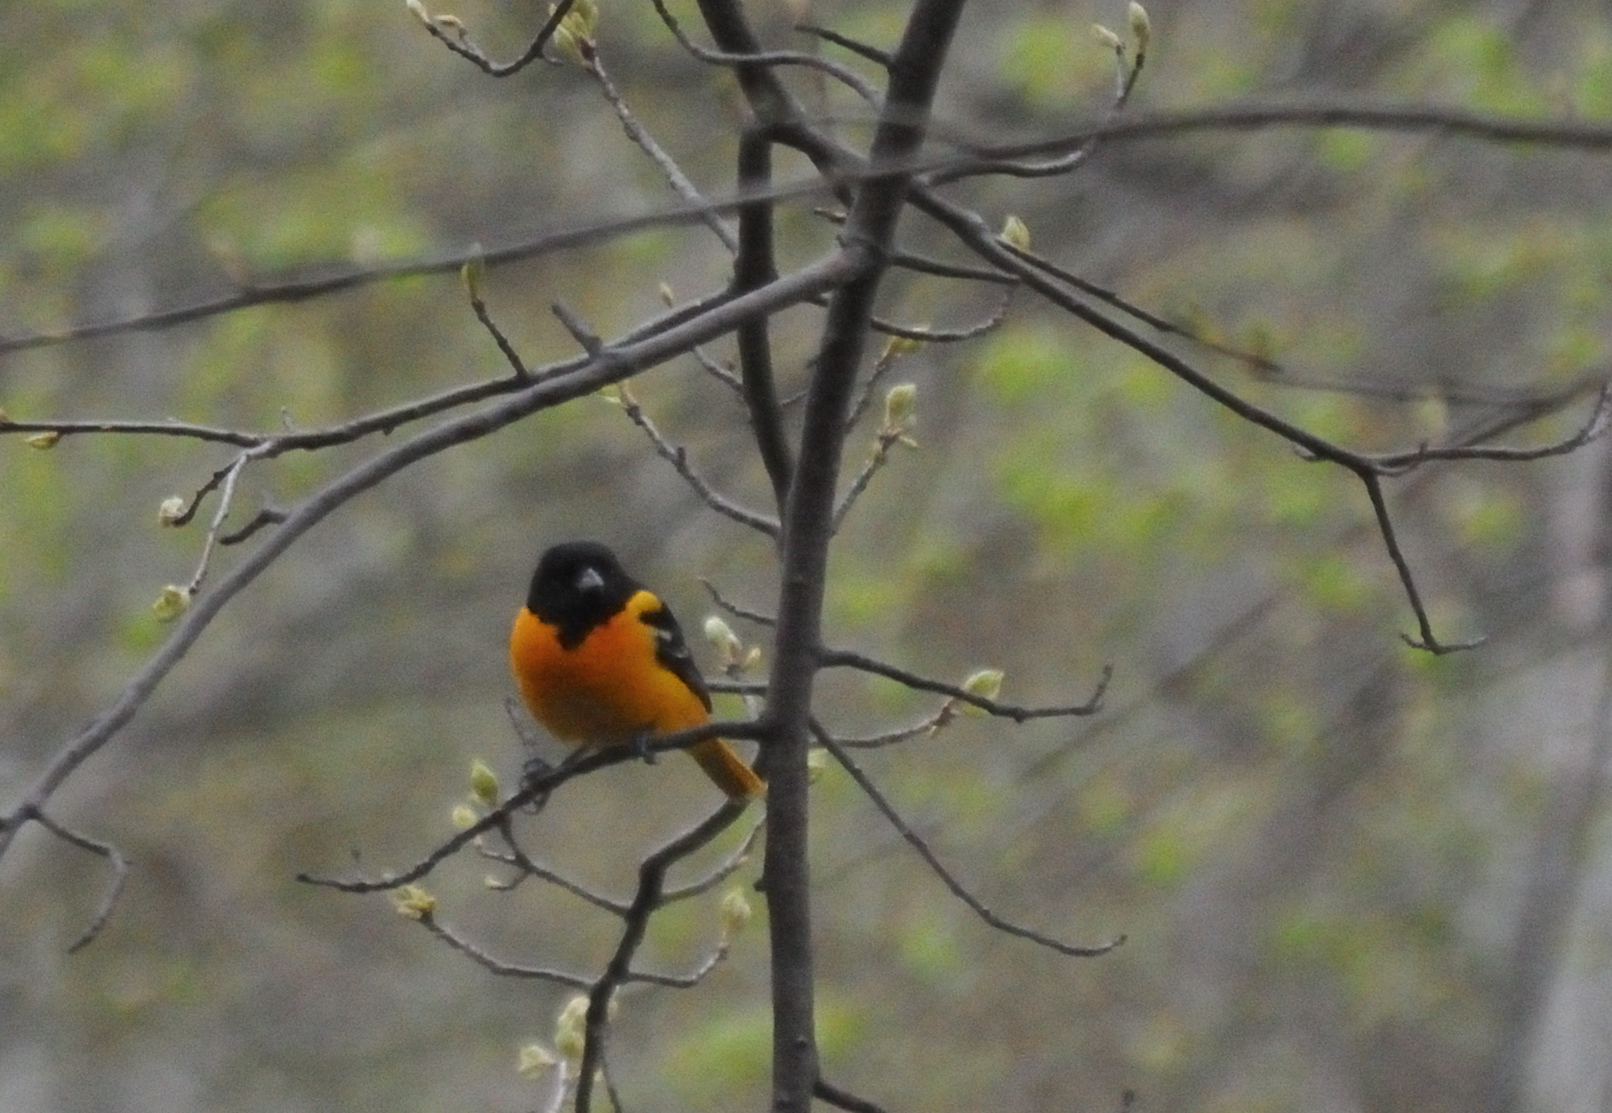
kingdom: Animalia
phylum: Chordata
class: Aves
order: Passeriformes
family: Icteridae
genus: Icterus
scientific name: Icterus galbula
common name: Baltimore oriole
